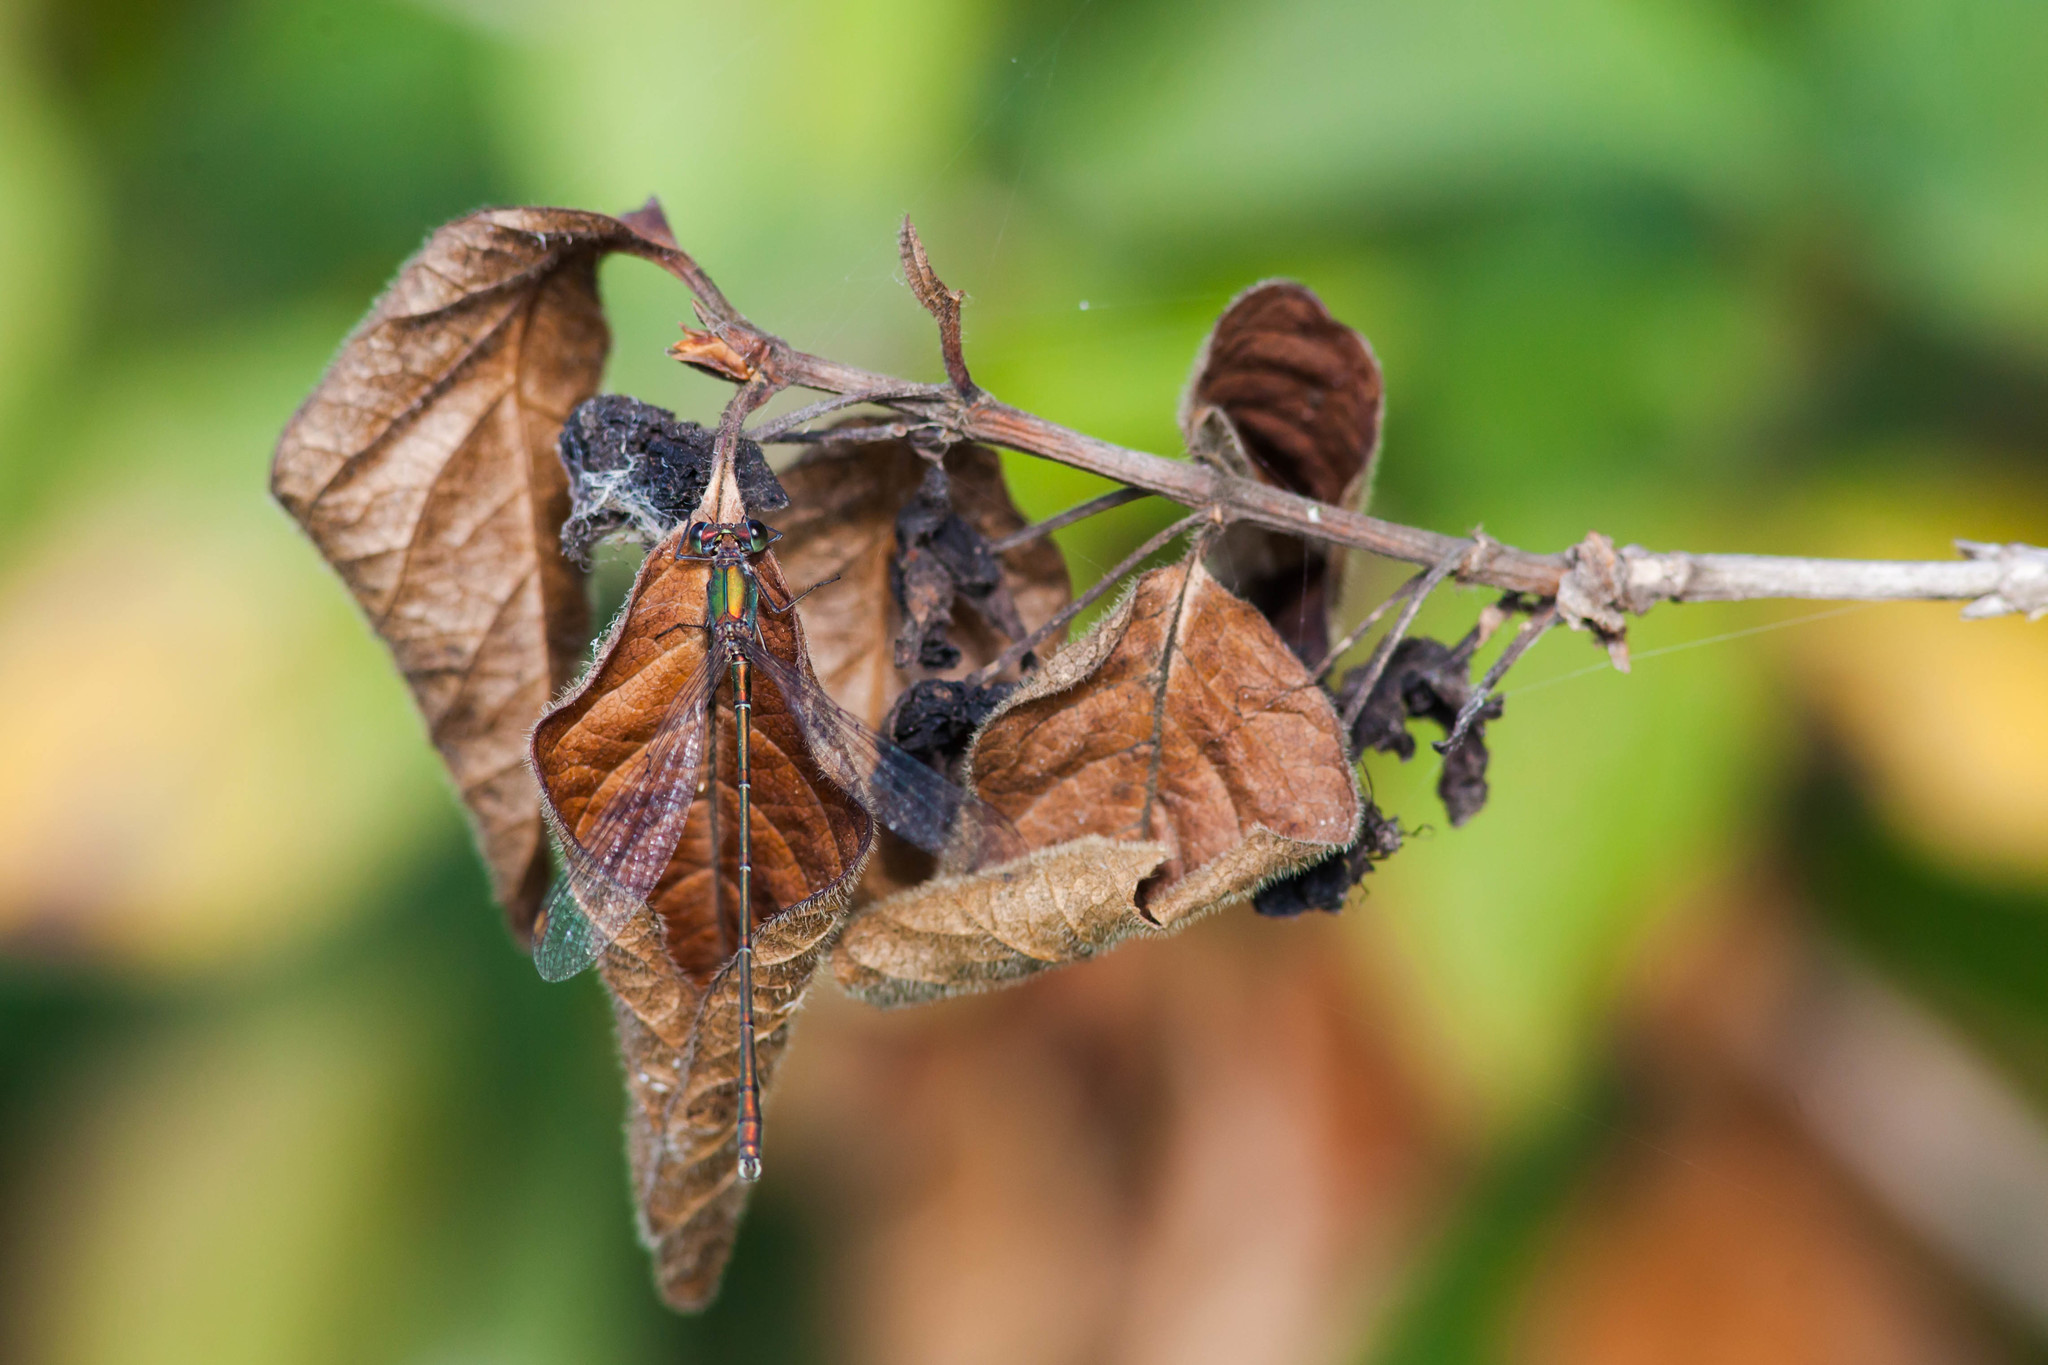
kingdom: Animalia
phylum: Arthropoda
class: Insecta
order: Odonata
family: Lestidae
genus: Chalcolestes
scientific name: Chalcolestes viridis
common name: Green emerald damselfly
